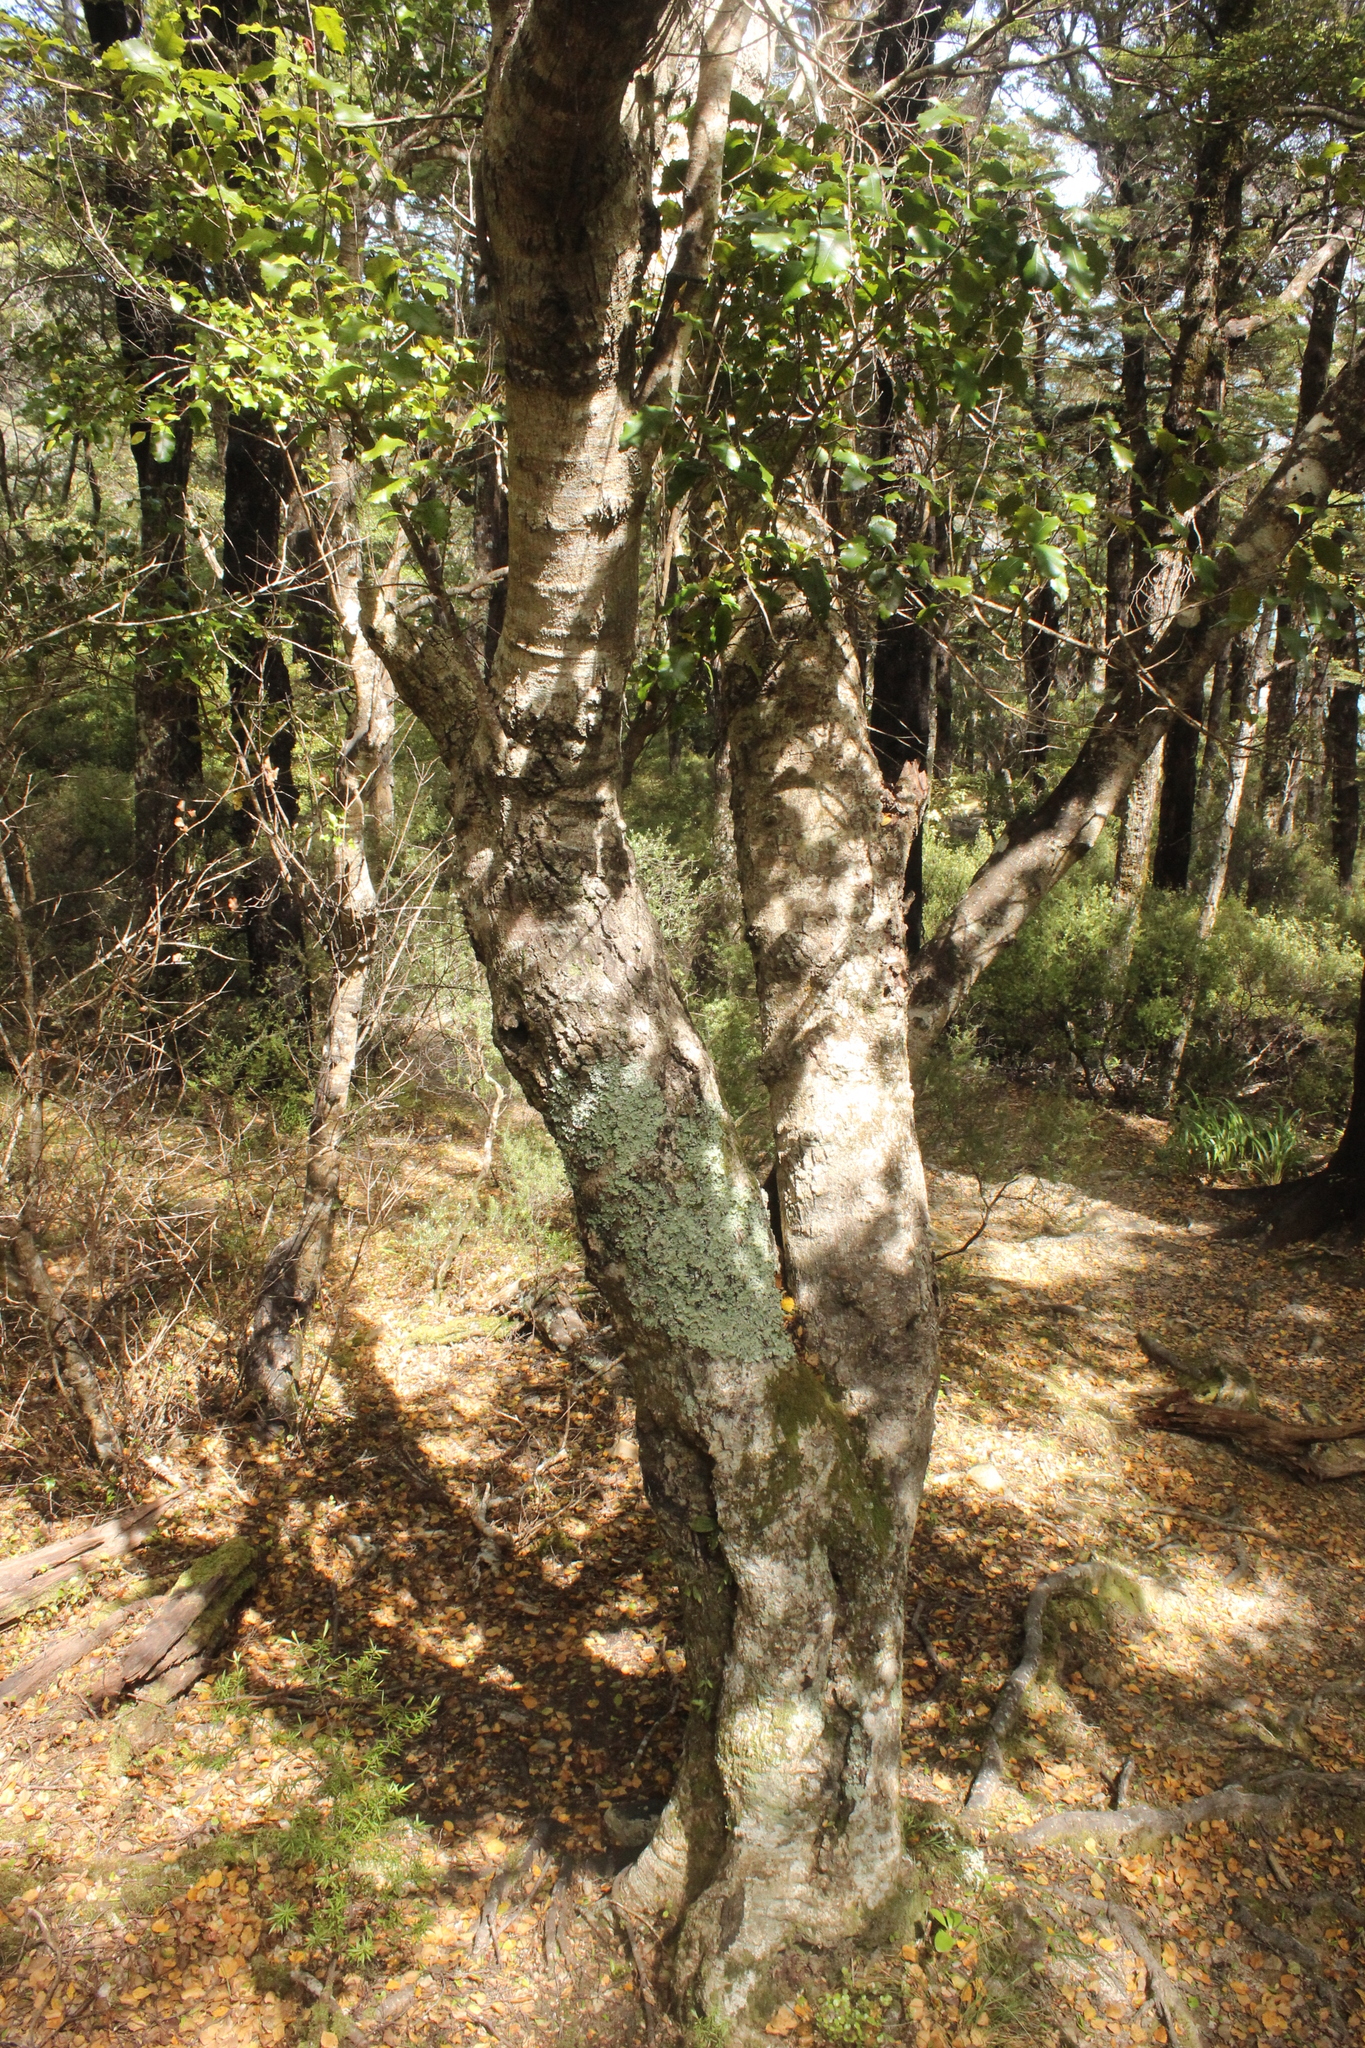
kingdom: Plantae
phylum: Tracheophyta
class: Magnoliopsida
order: Oxalidales
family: Cunoniaceae
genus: Pterophylla
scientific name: Pterophylla racemosa
